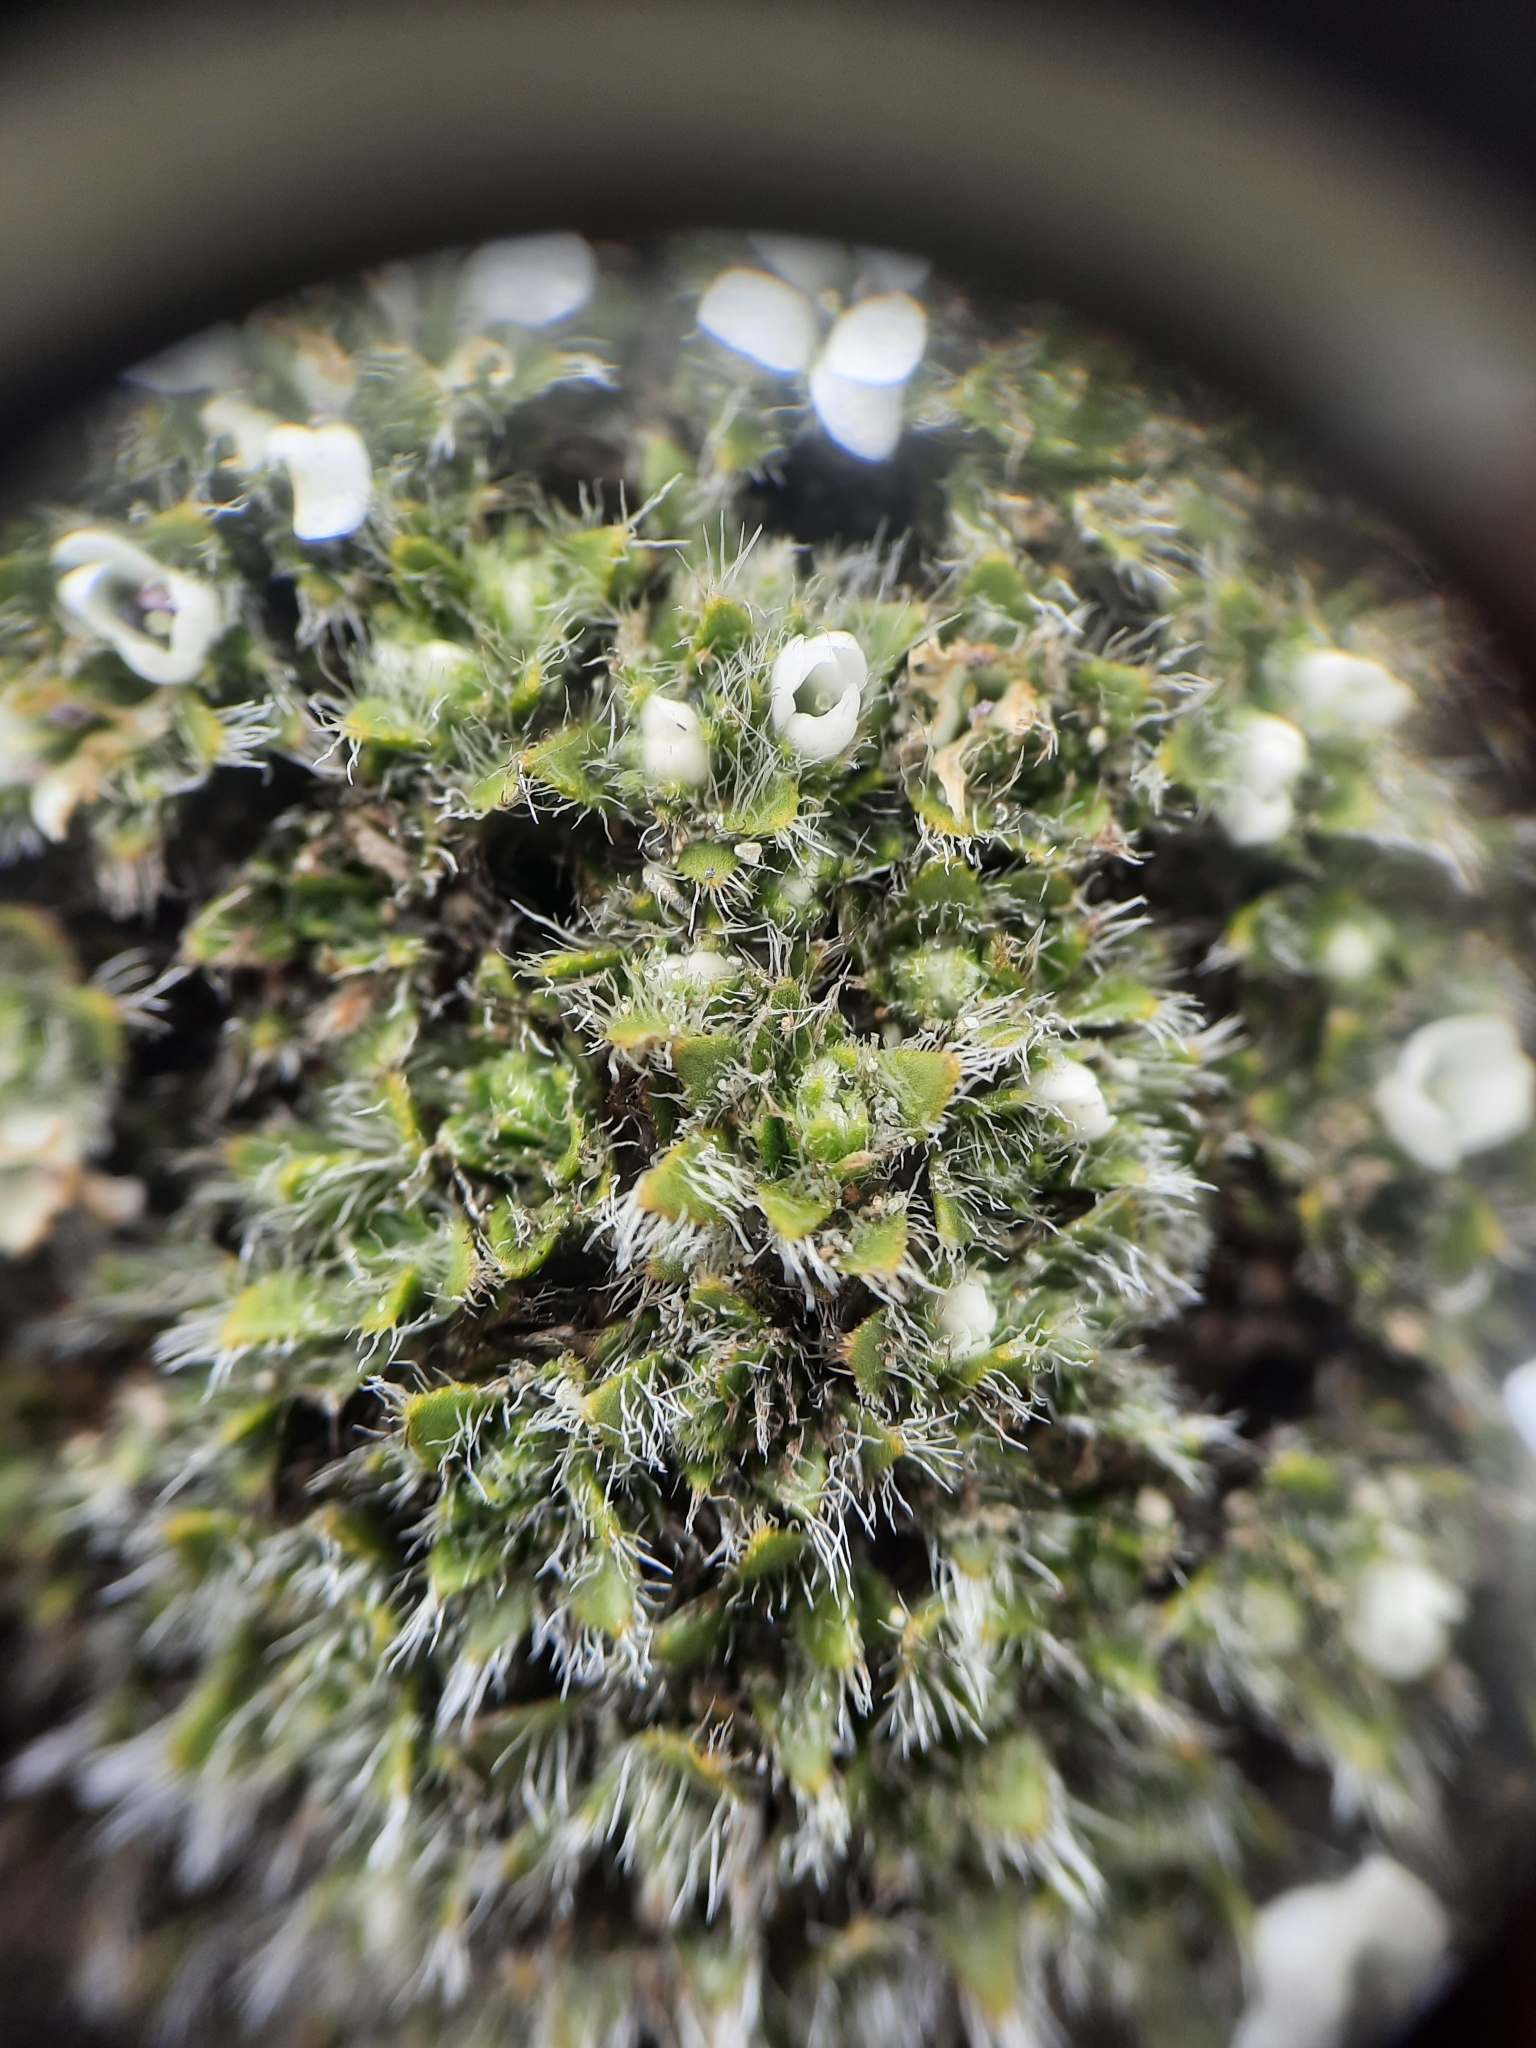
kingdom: Plantae
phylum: Tracheophyta
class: Magnoliopsida
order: Lamiales
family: Plantaginaceae
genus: Veronica
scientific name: Veronica pulvinaris
